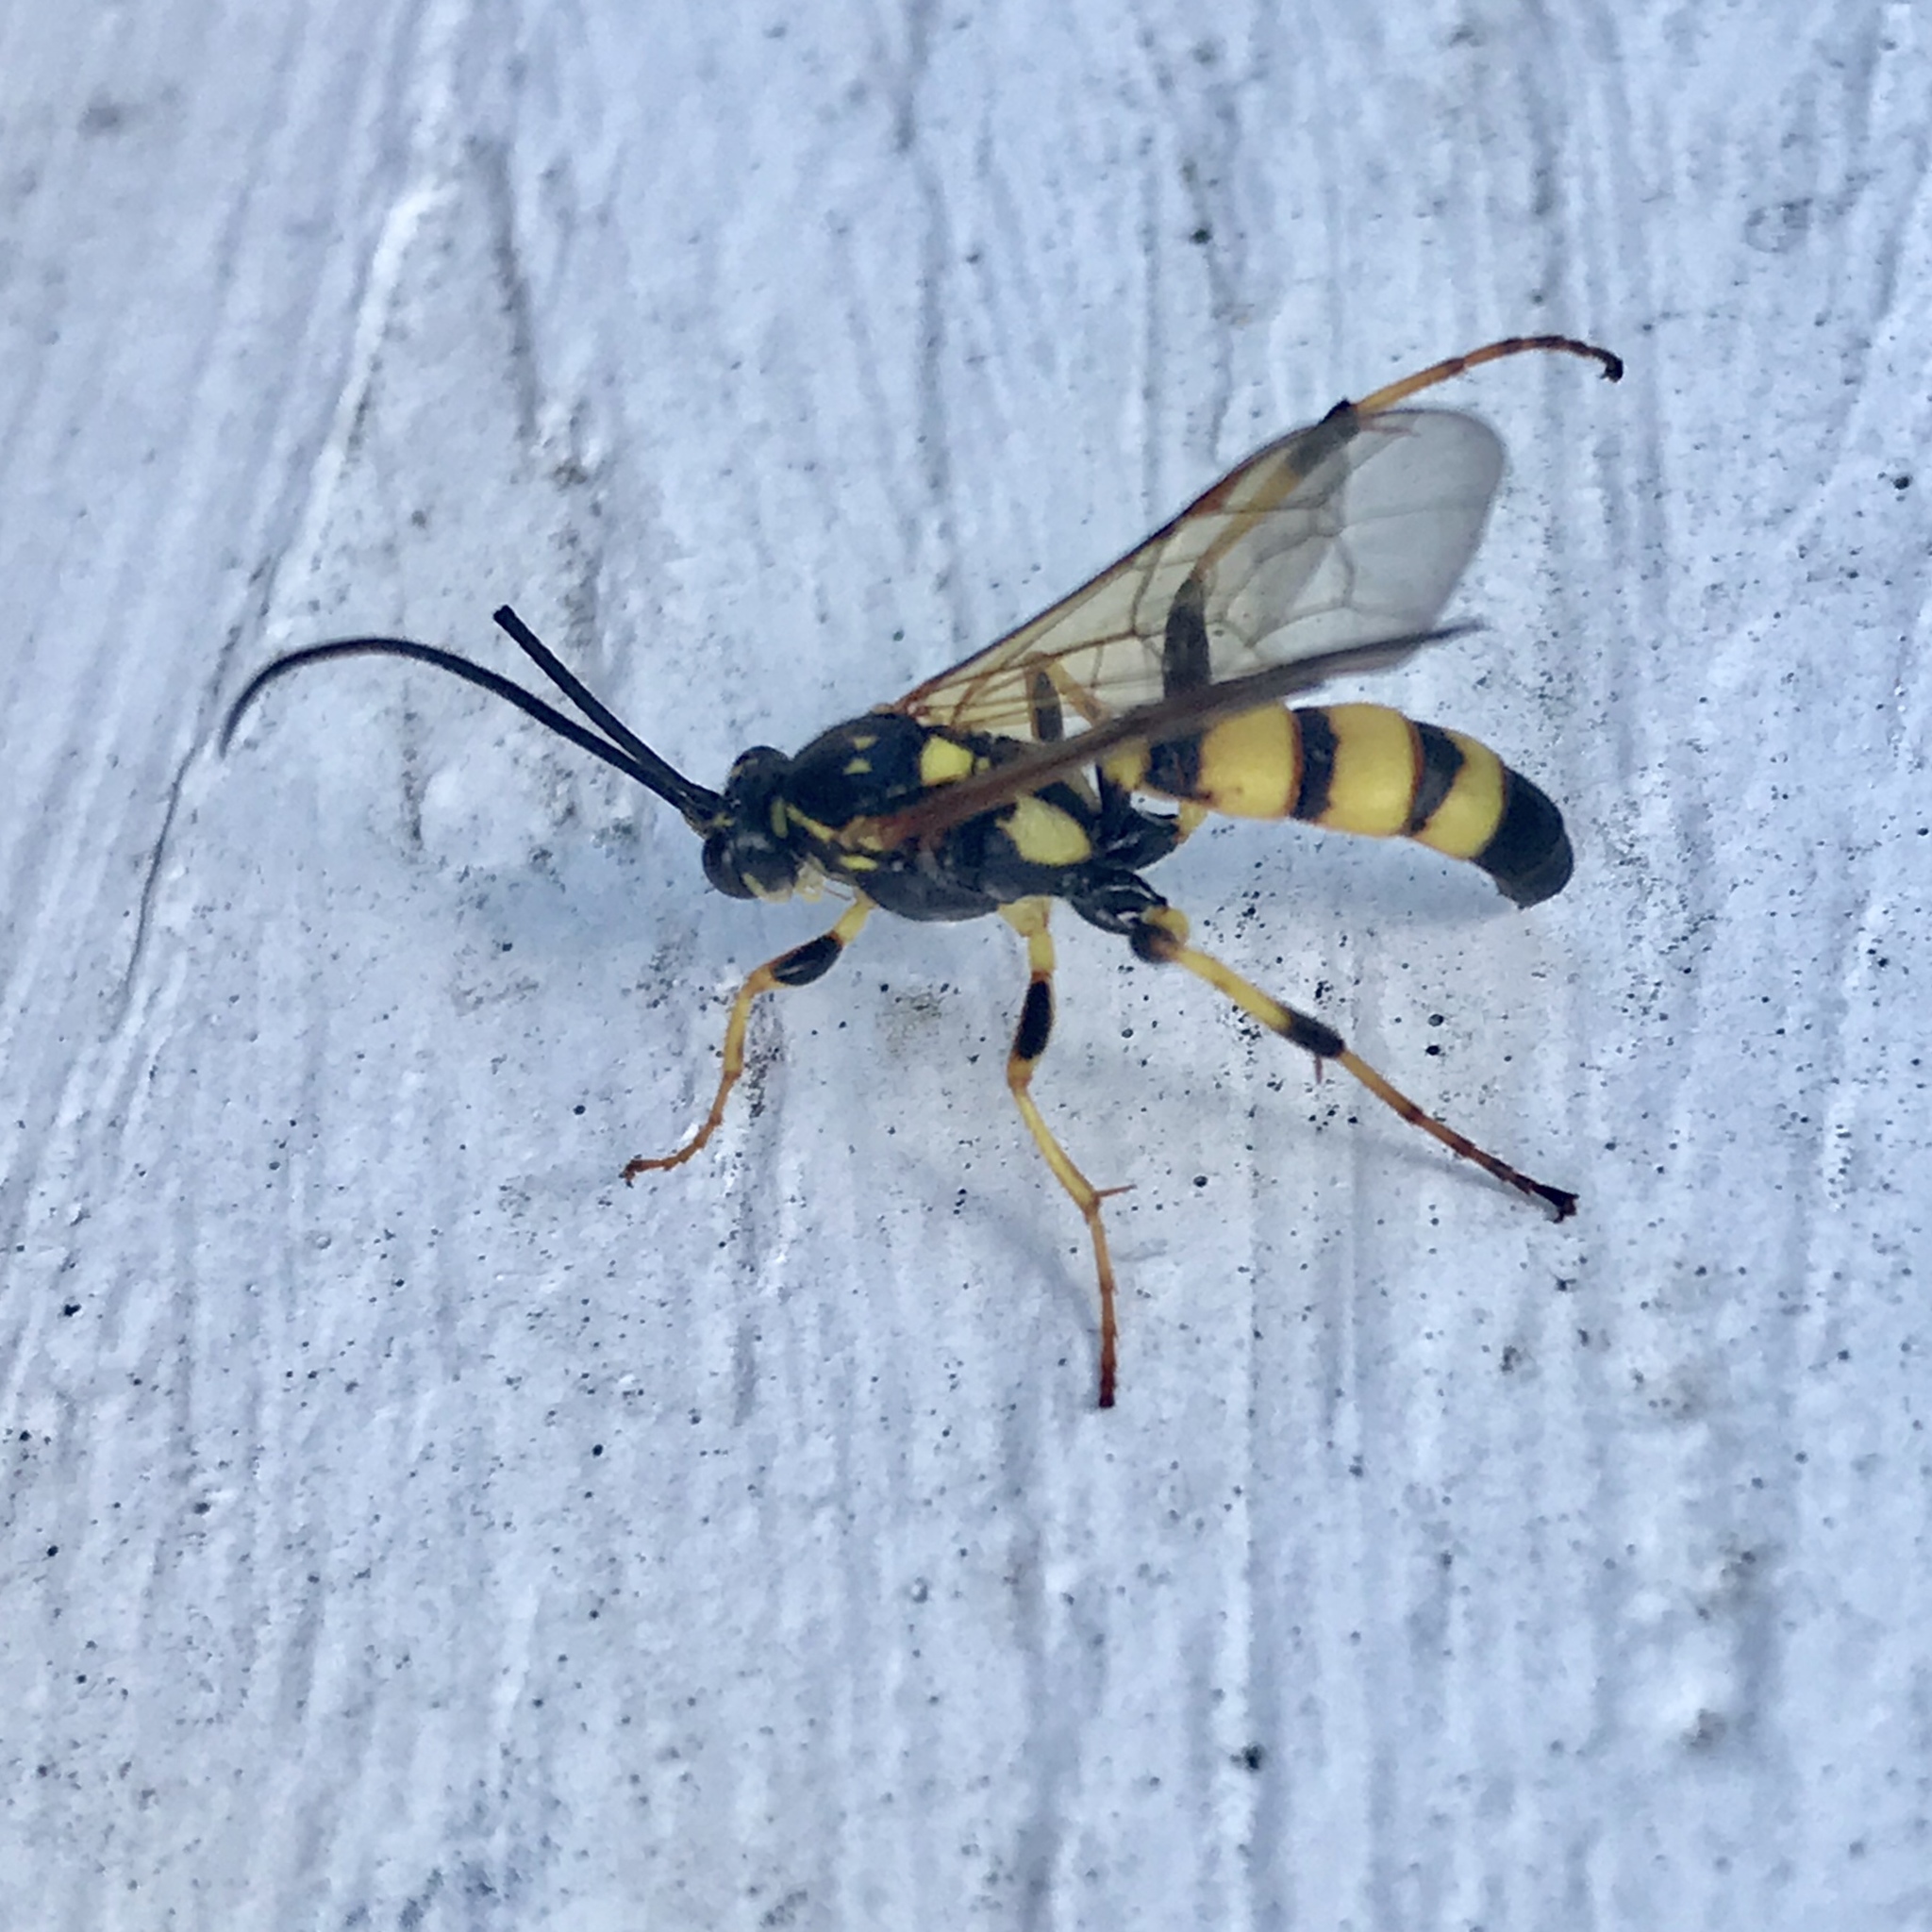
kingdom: Animalia
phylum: Arthropoda
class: Insecta
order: Hymenoptera
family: Ichneumonidae
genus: Ichneumon
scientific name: Ichneumon annulatorius
